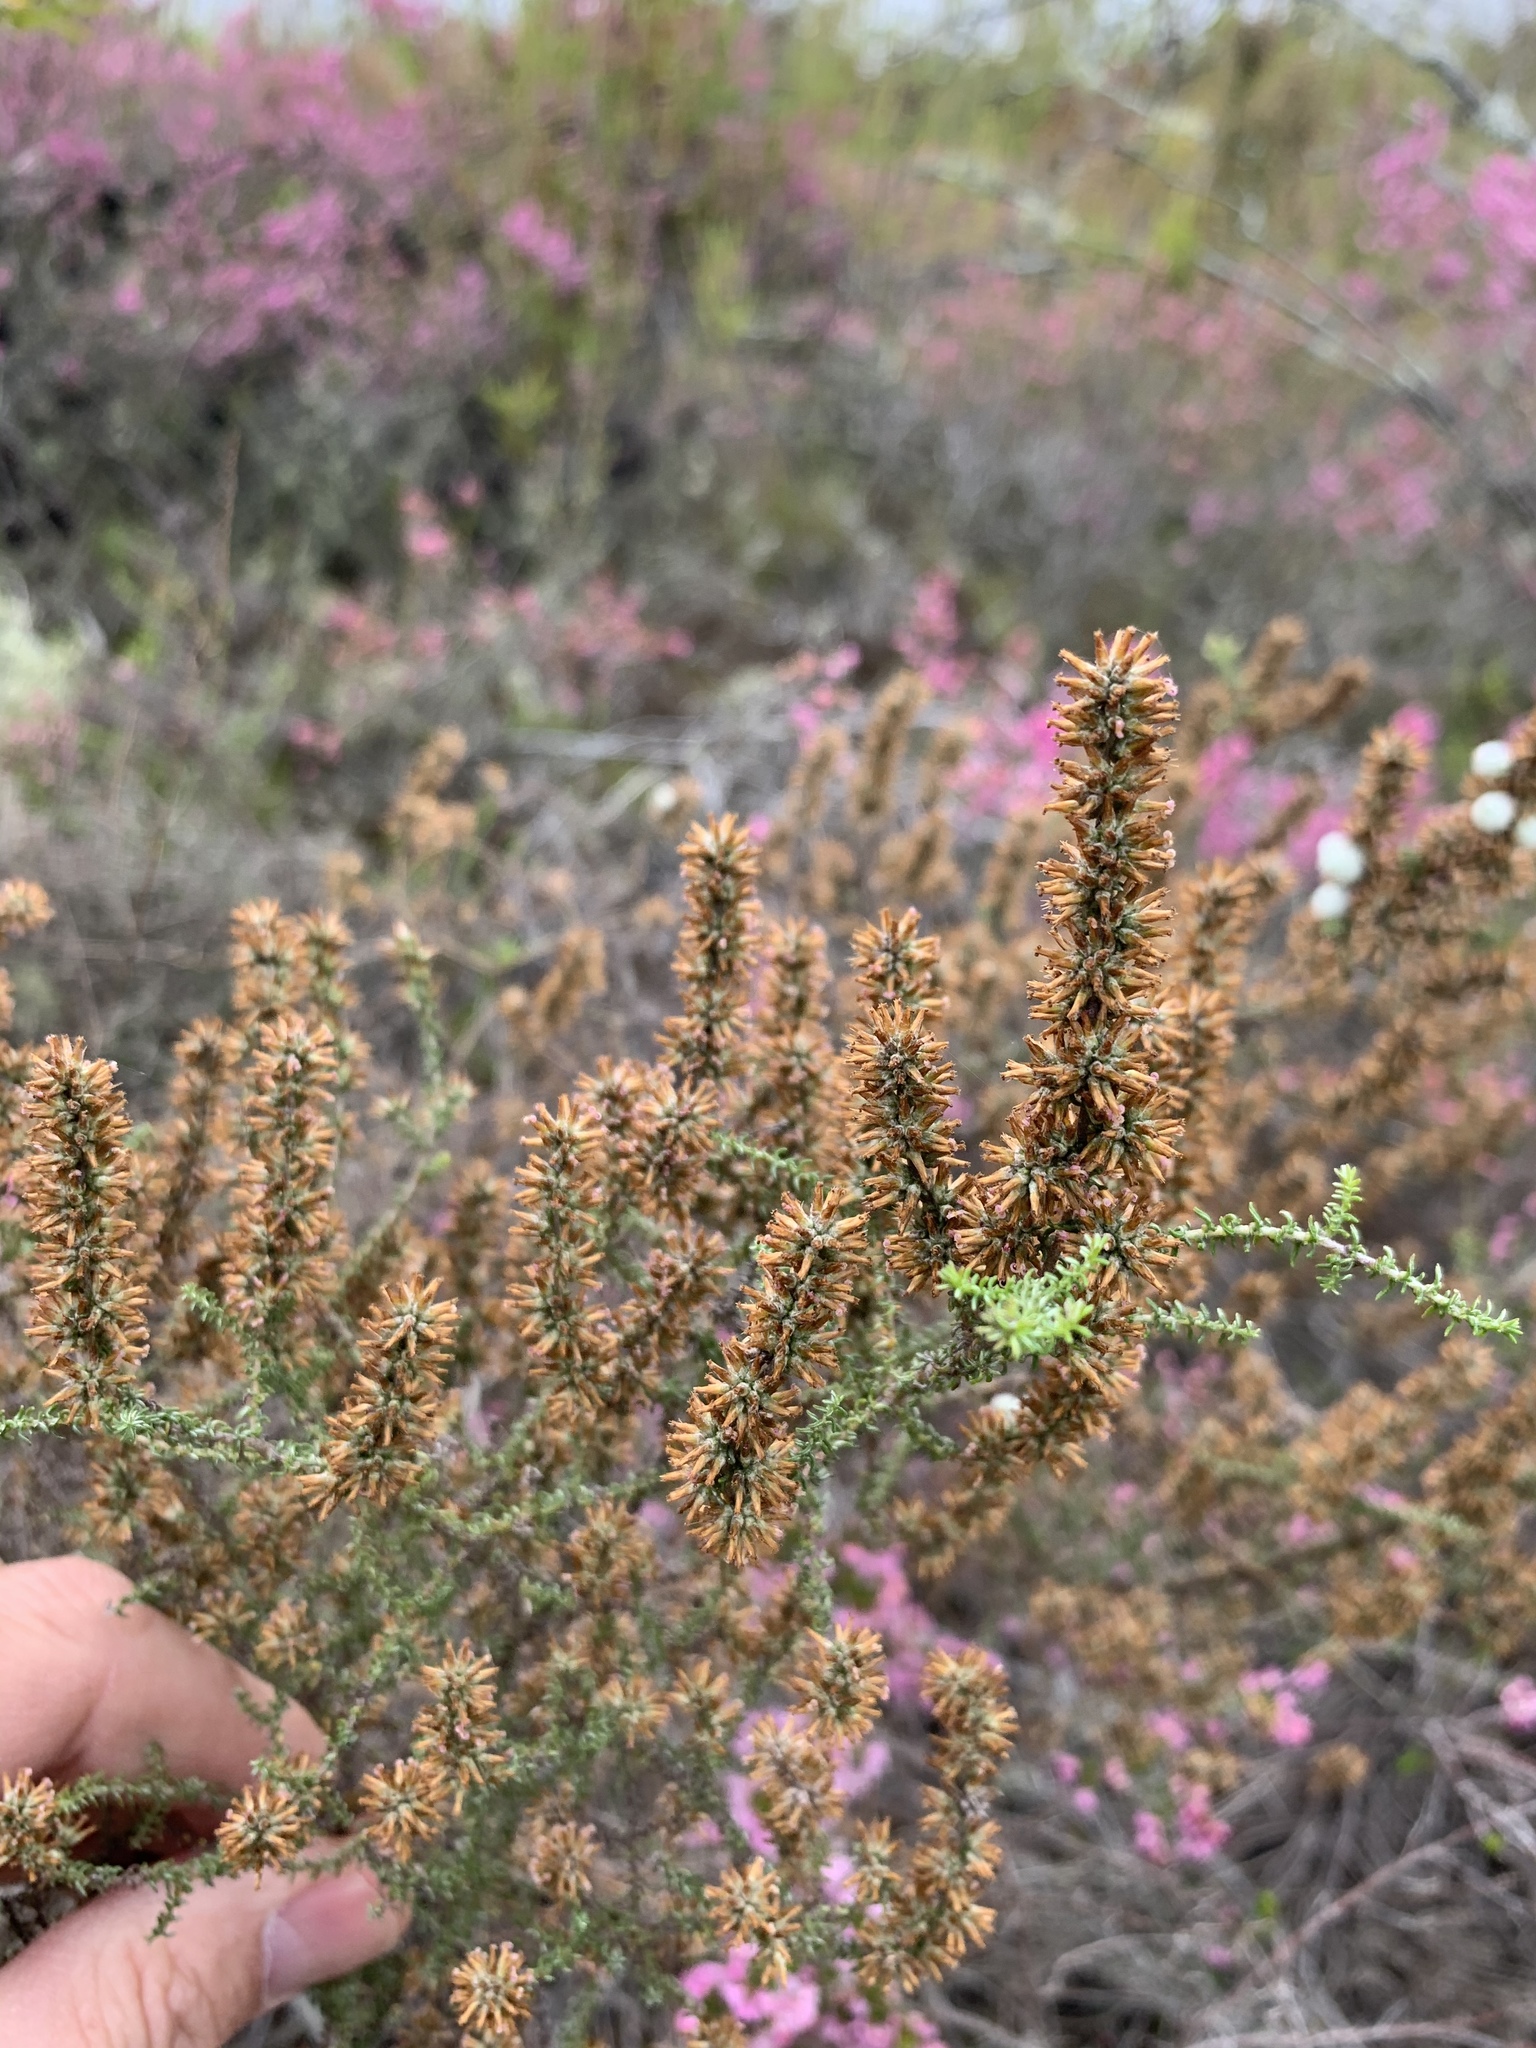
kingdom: Plantae
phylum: Tracheophyta
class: Magnoliopsida
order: Asterales
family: Asteraceae
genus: Seriphium
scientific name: Seriphium cinereum
